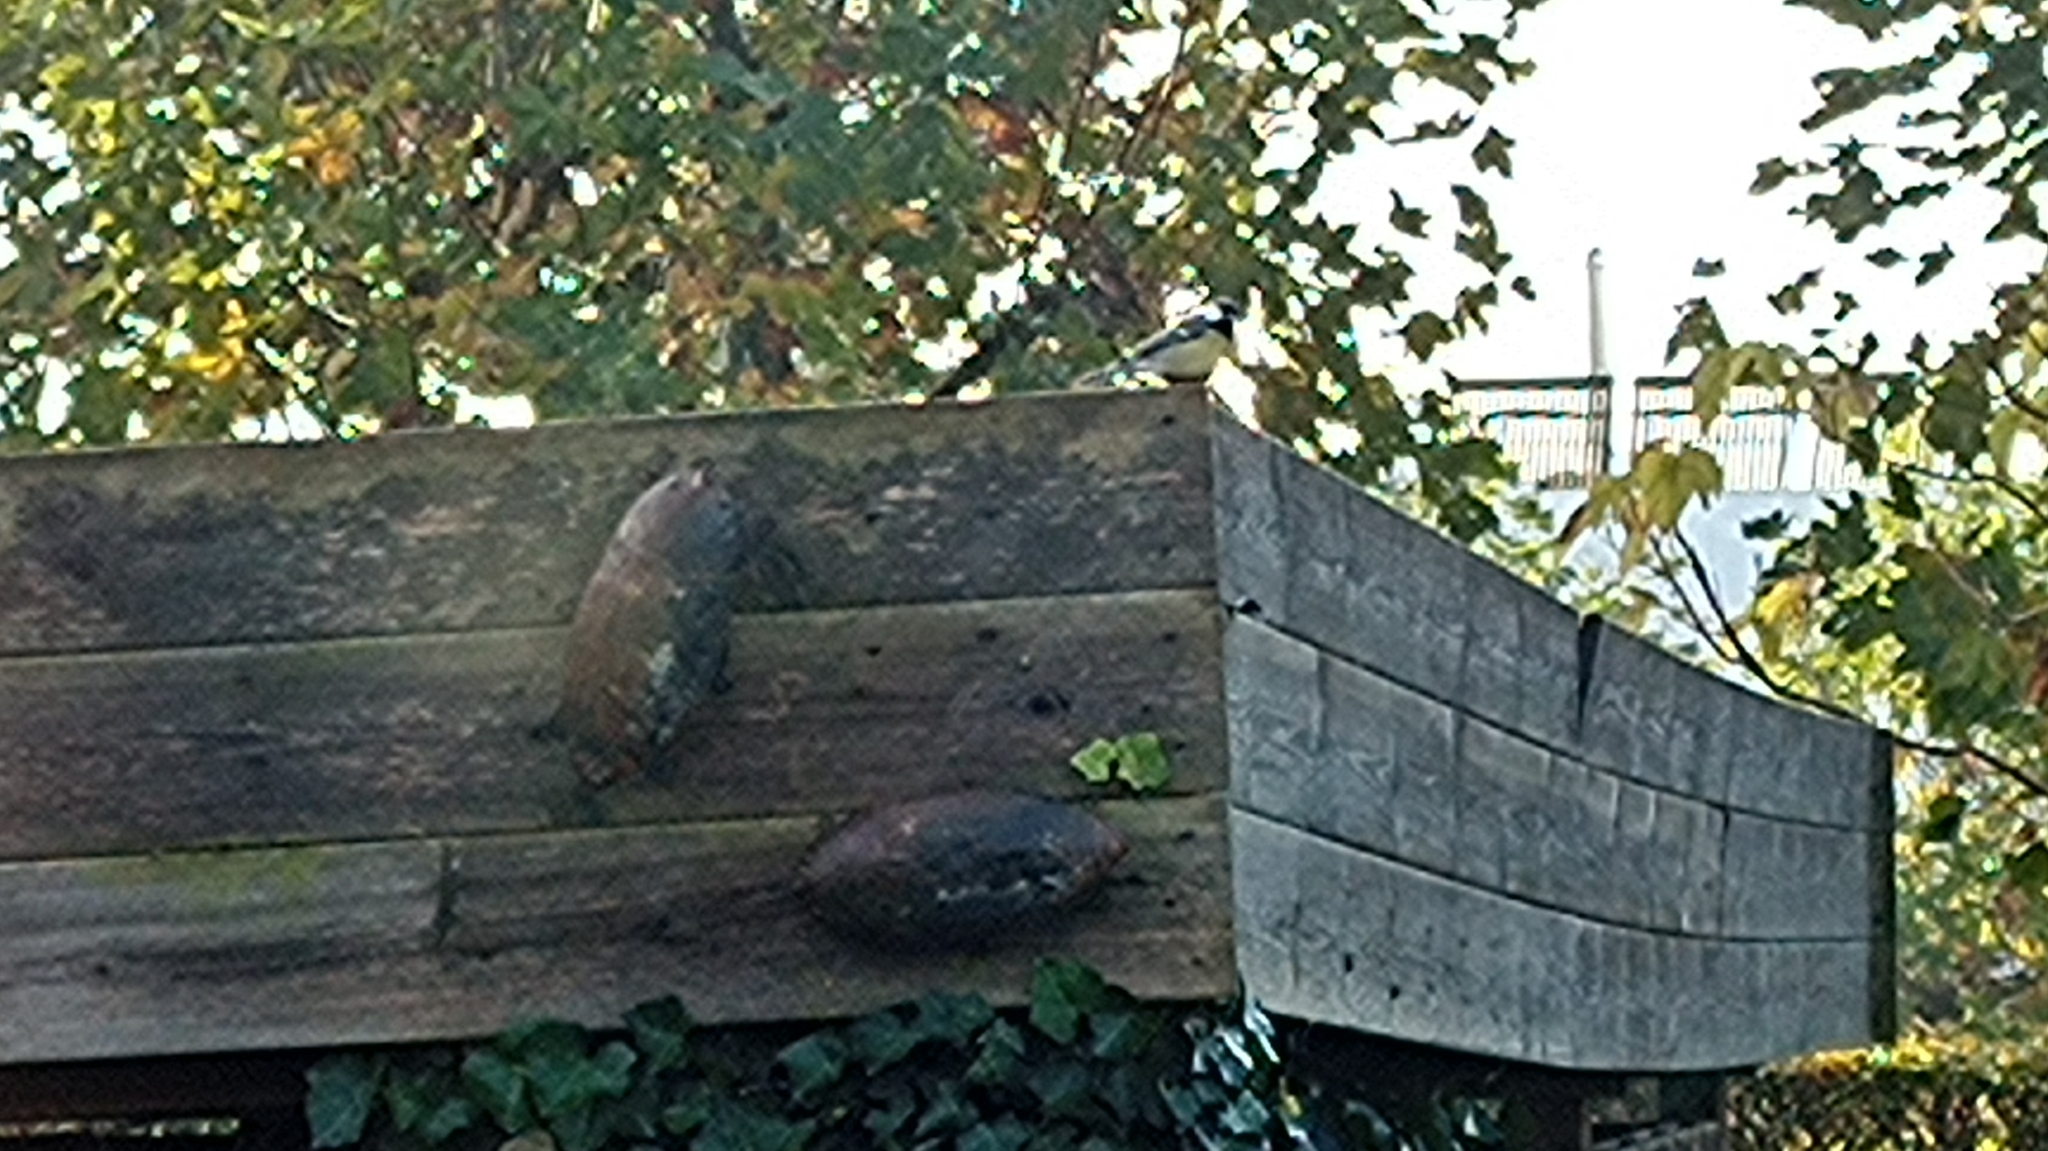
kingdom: Animalia
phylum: Chordata
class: Aves
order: Passeriformes
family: Paridae
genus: Parus
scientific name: Parus major
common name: Great tit
